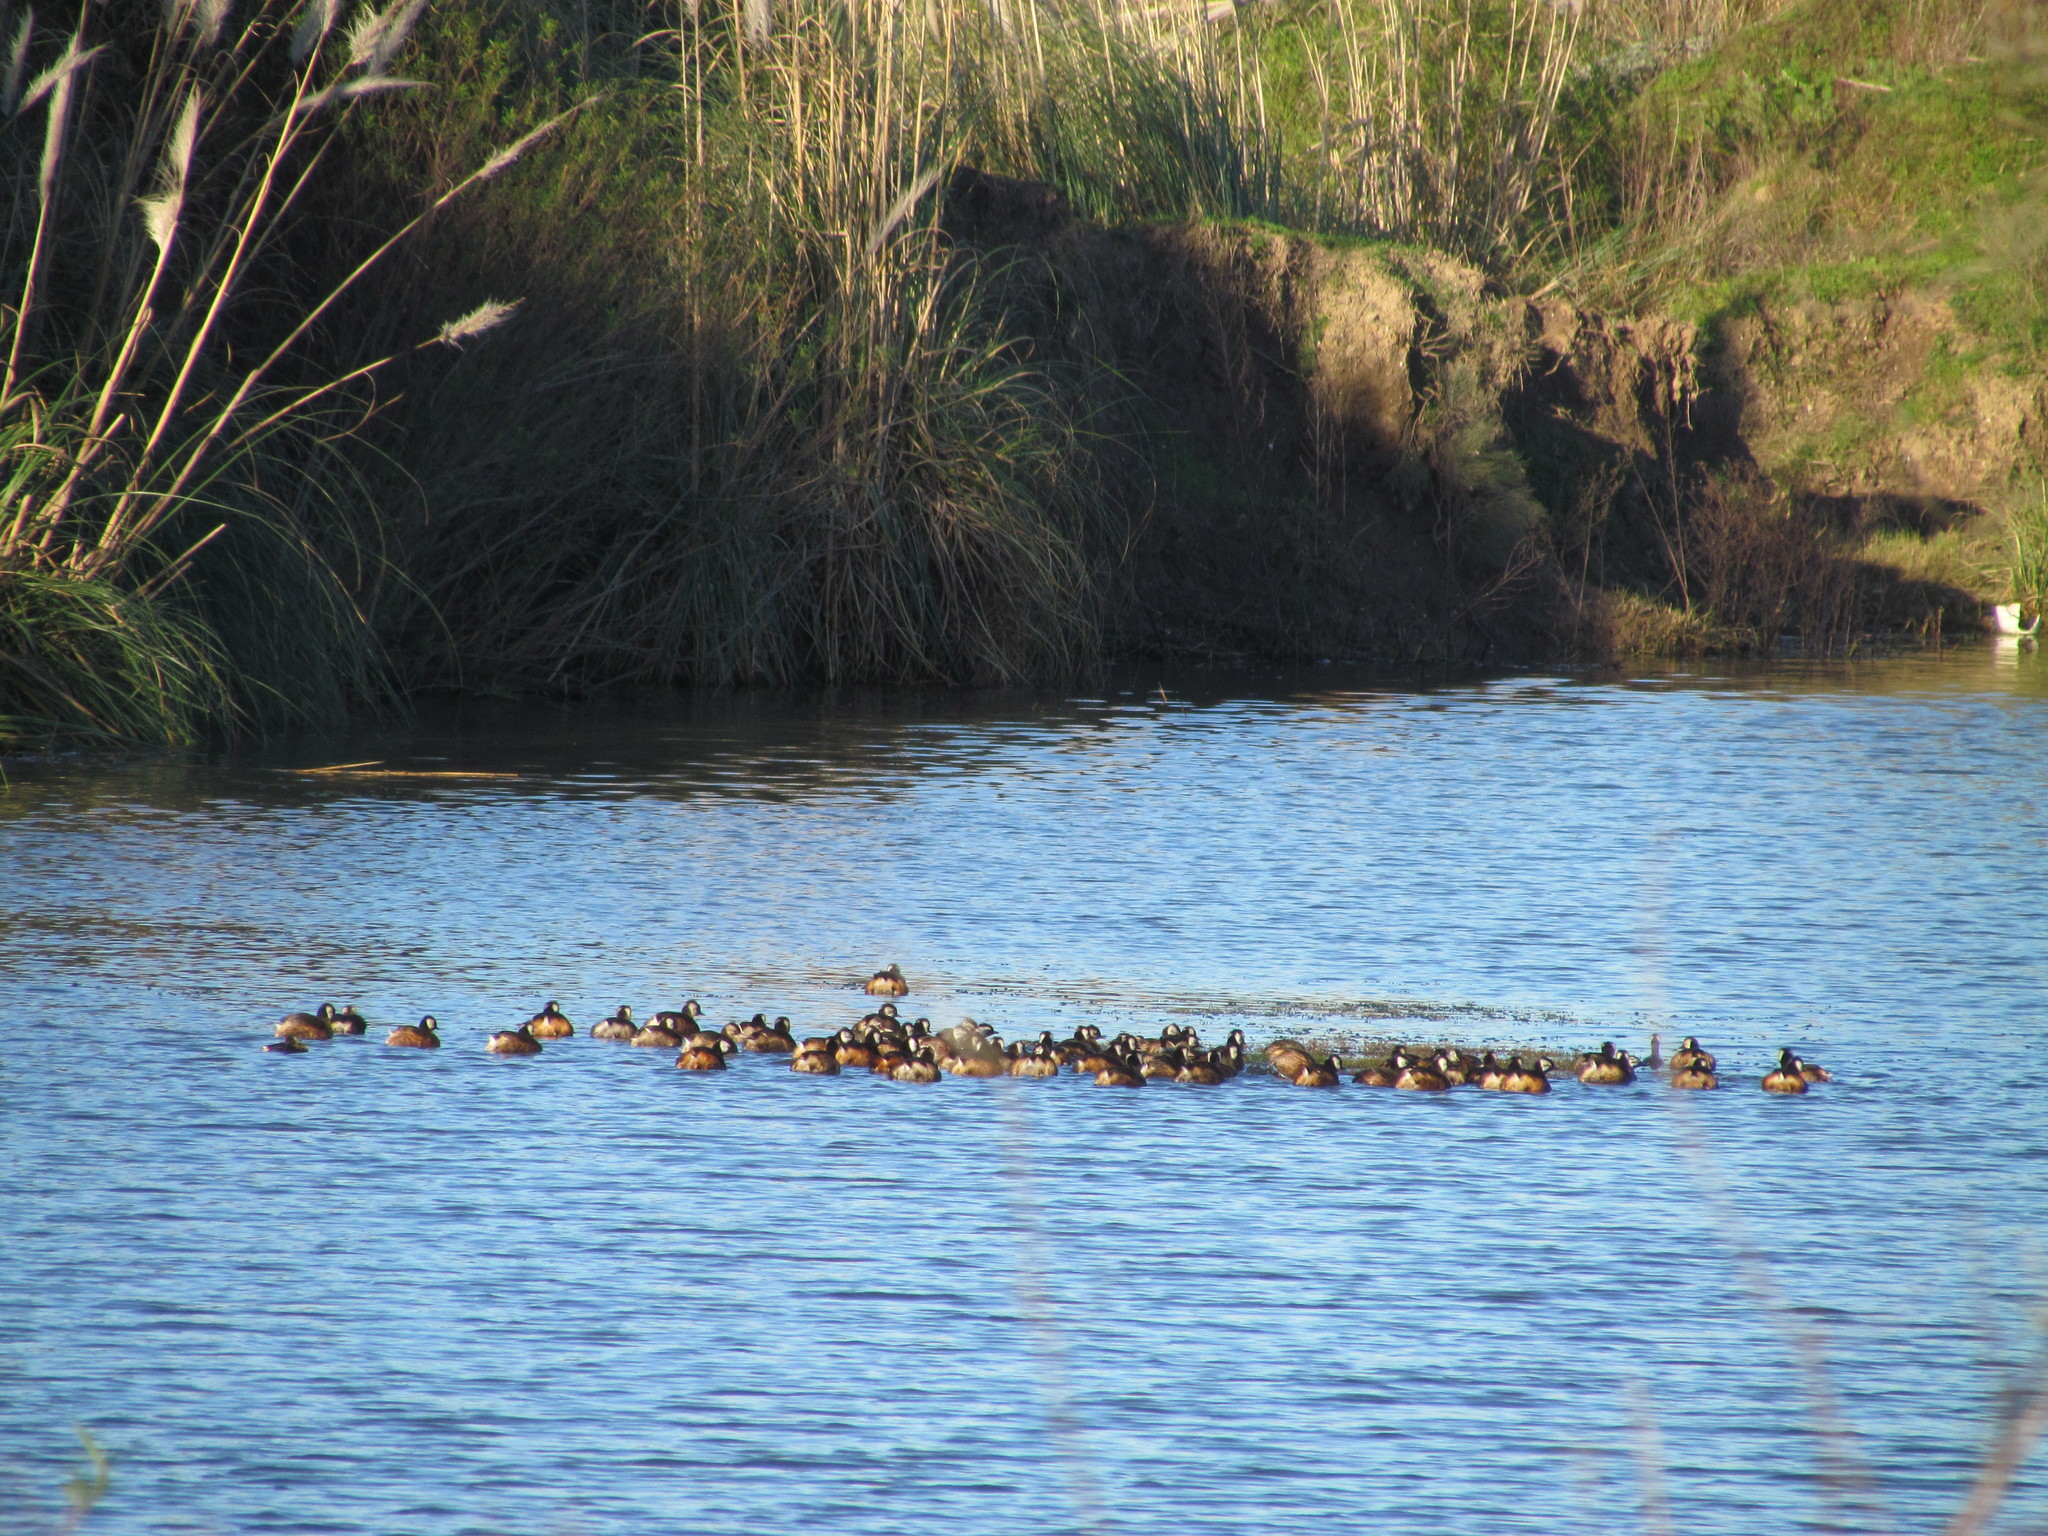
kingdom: Animalia
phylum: Chordata
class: Aves
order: Podicipediformes
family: Podicipedidae
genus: Rollandia
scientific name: Rollandia rolland
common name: White-tufted grebe
